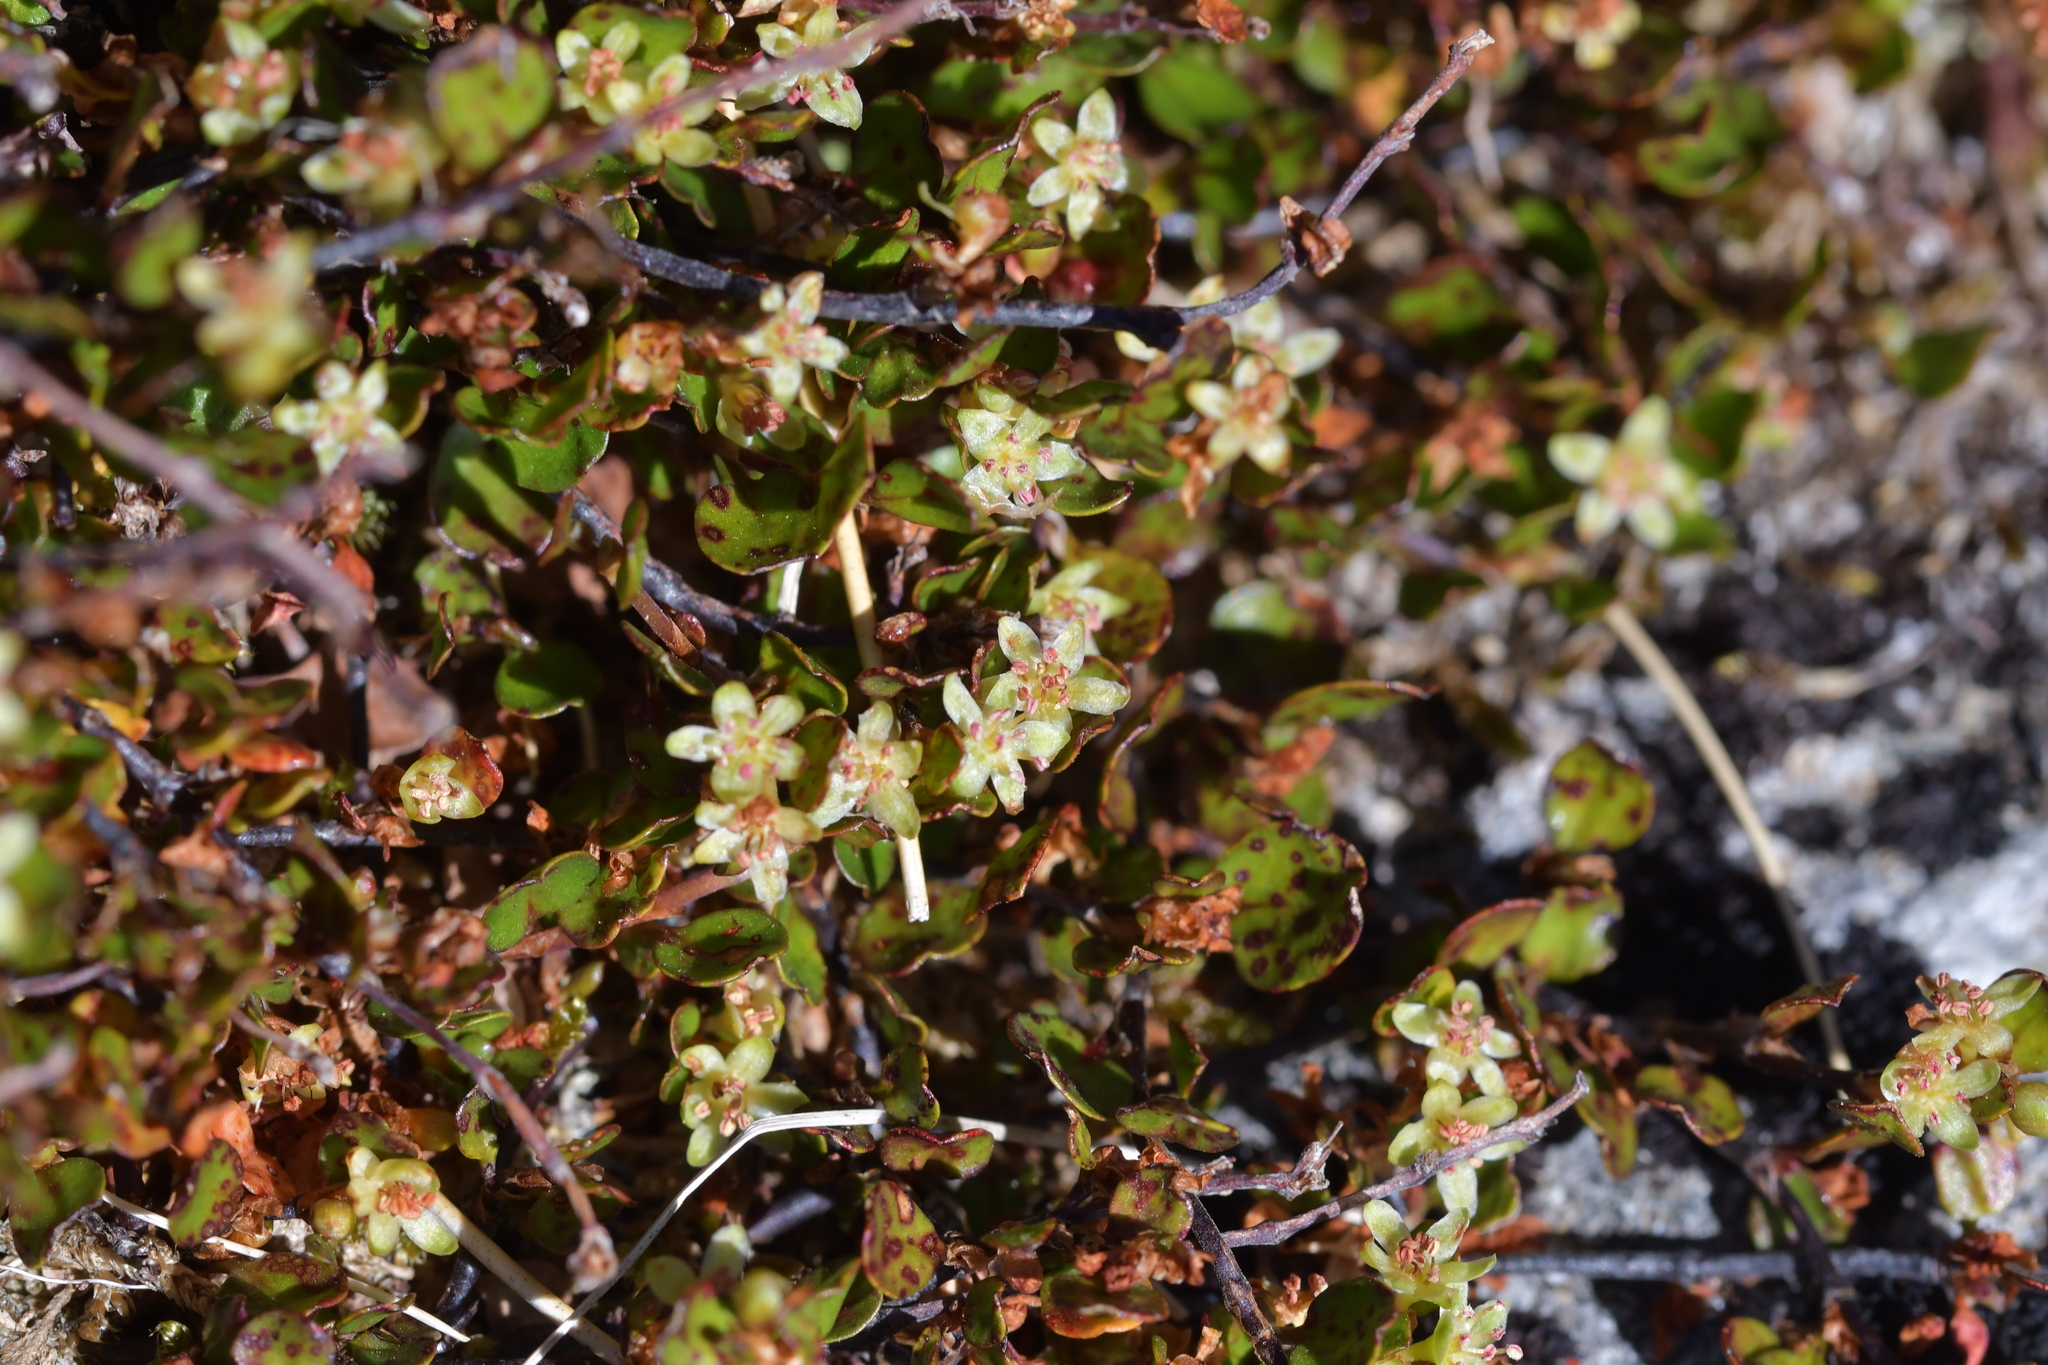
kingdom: Plantae
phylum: Tracheophyta
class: Magnoliopsida
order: Caryophyllales
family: Polygonaceae
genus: Muehlenbeckia
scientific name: Muehlenbeckia axillaris
